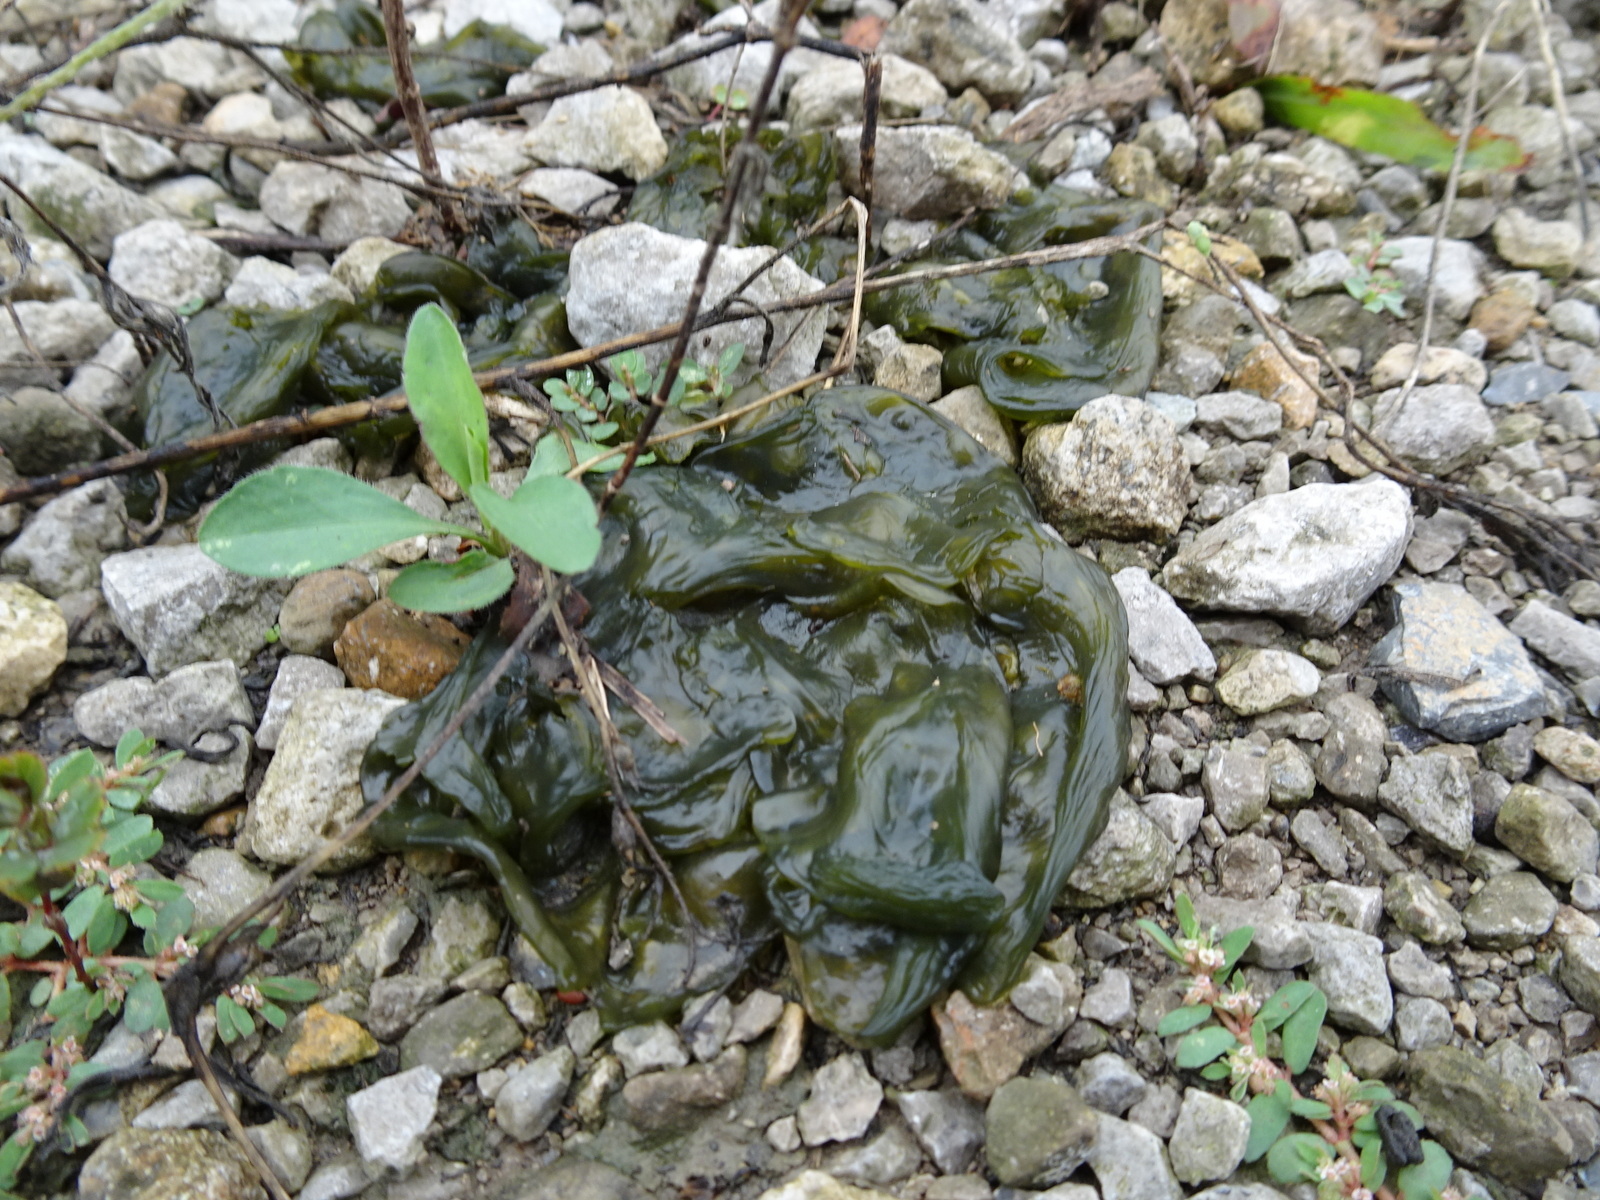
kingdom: Bacteria
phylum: Cyanobacteria
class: Cyanobacteriia
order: Cyanobacteriales
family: Nostocaceae
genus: Nostoc
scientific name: Nostoc commune
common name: Star jelly
